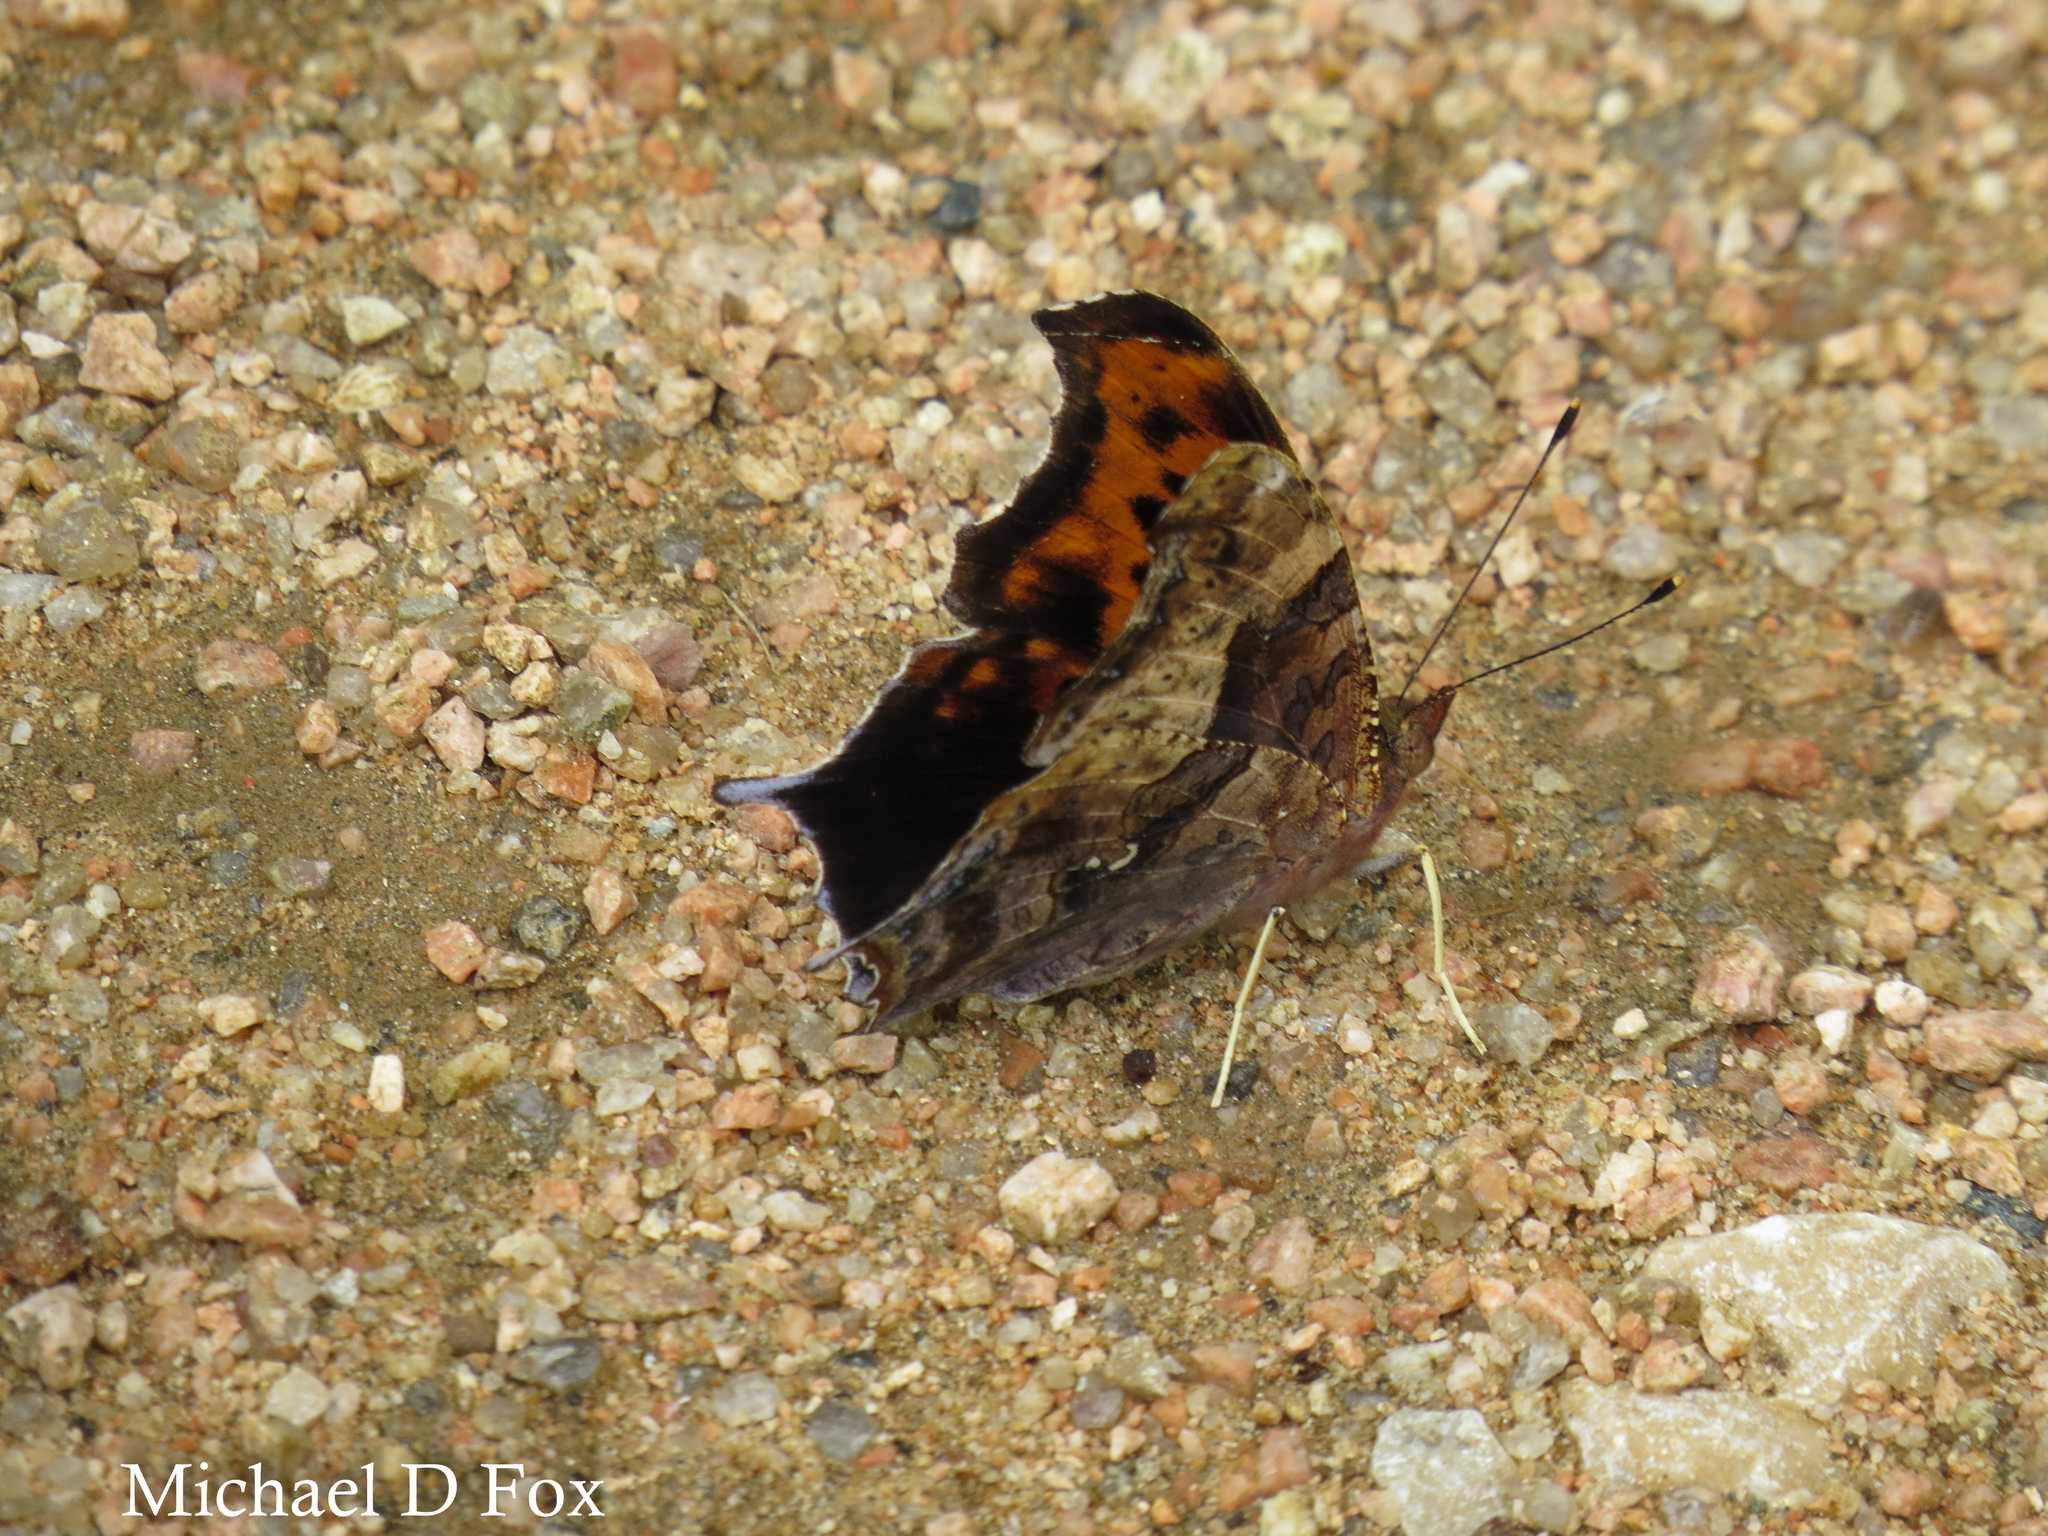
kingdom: Animalia
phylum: Arthropoda
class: Insecta
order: Lepidoptera
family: Nymphalidae
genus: Polygonia
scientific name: Polygonia interrogationis
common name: Question mark
